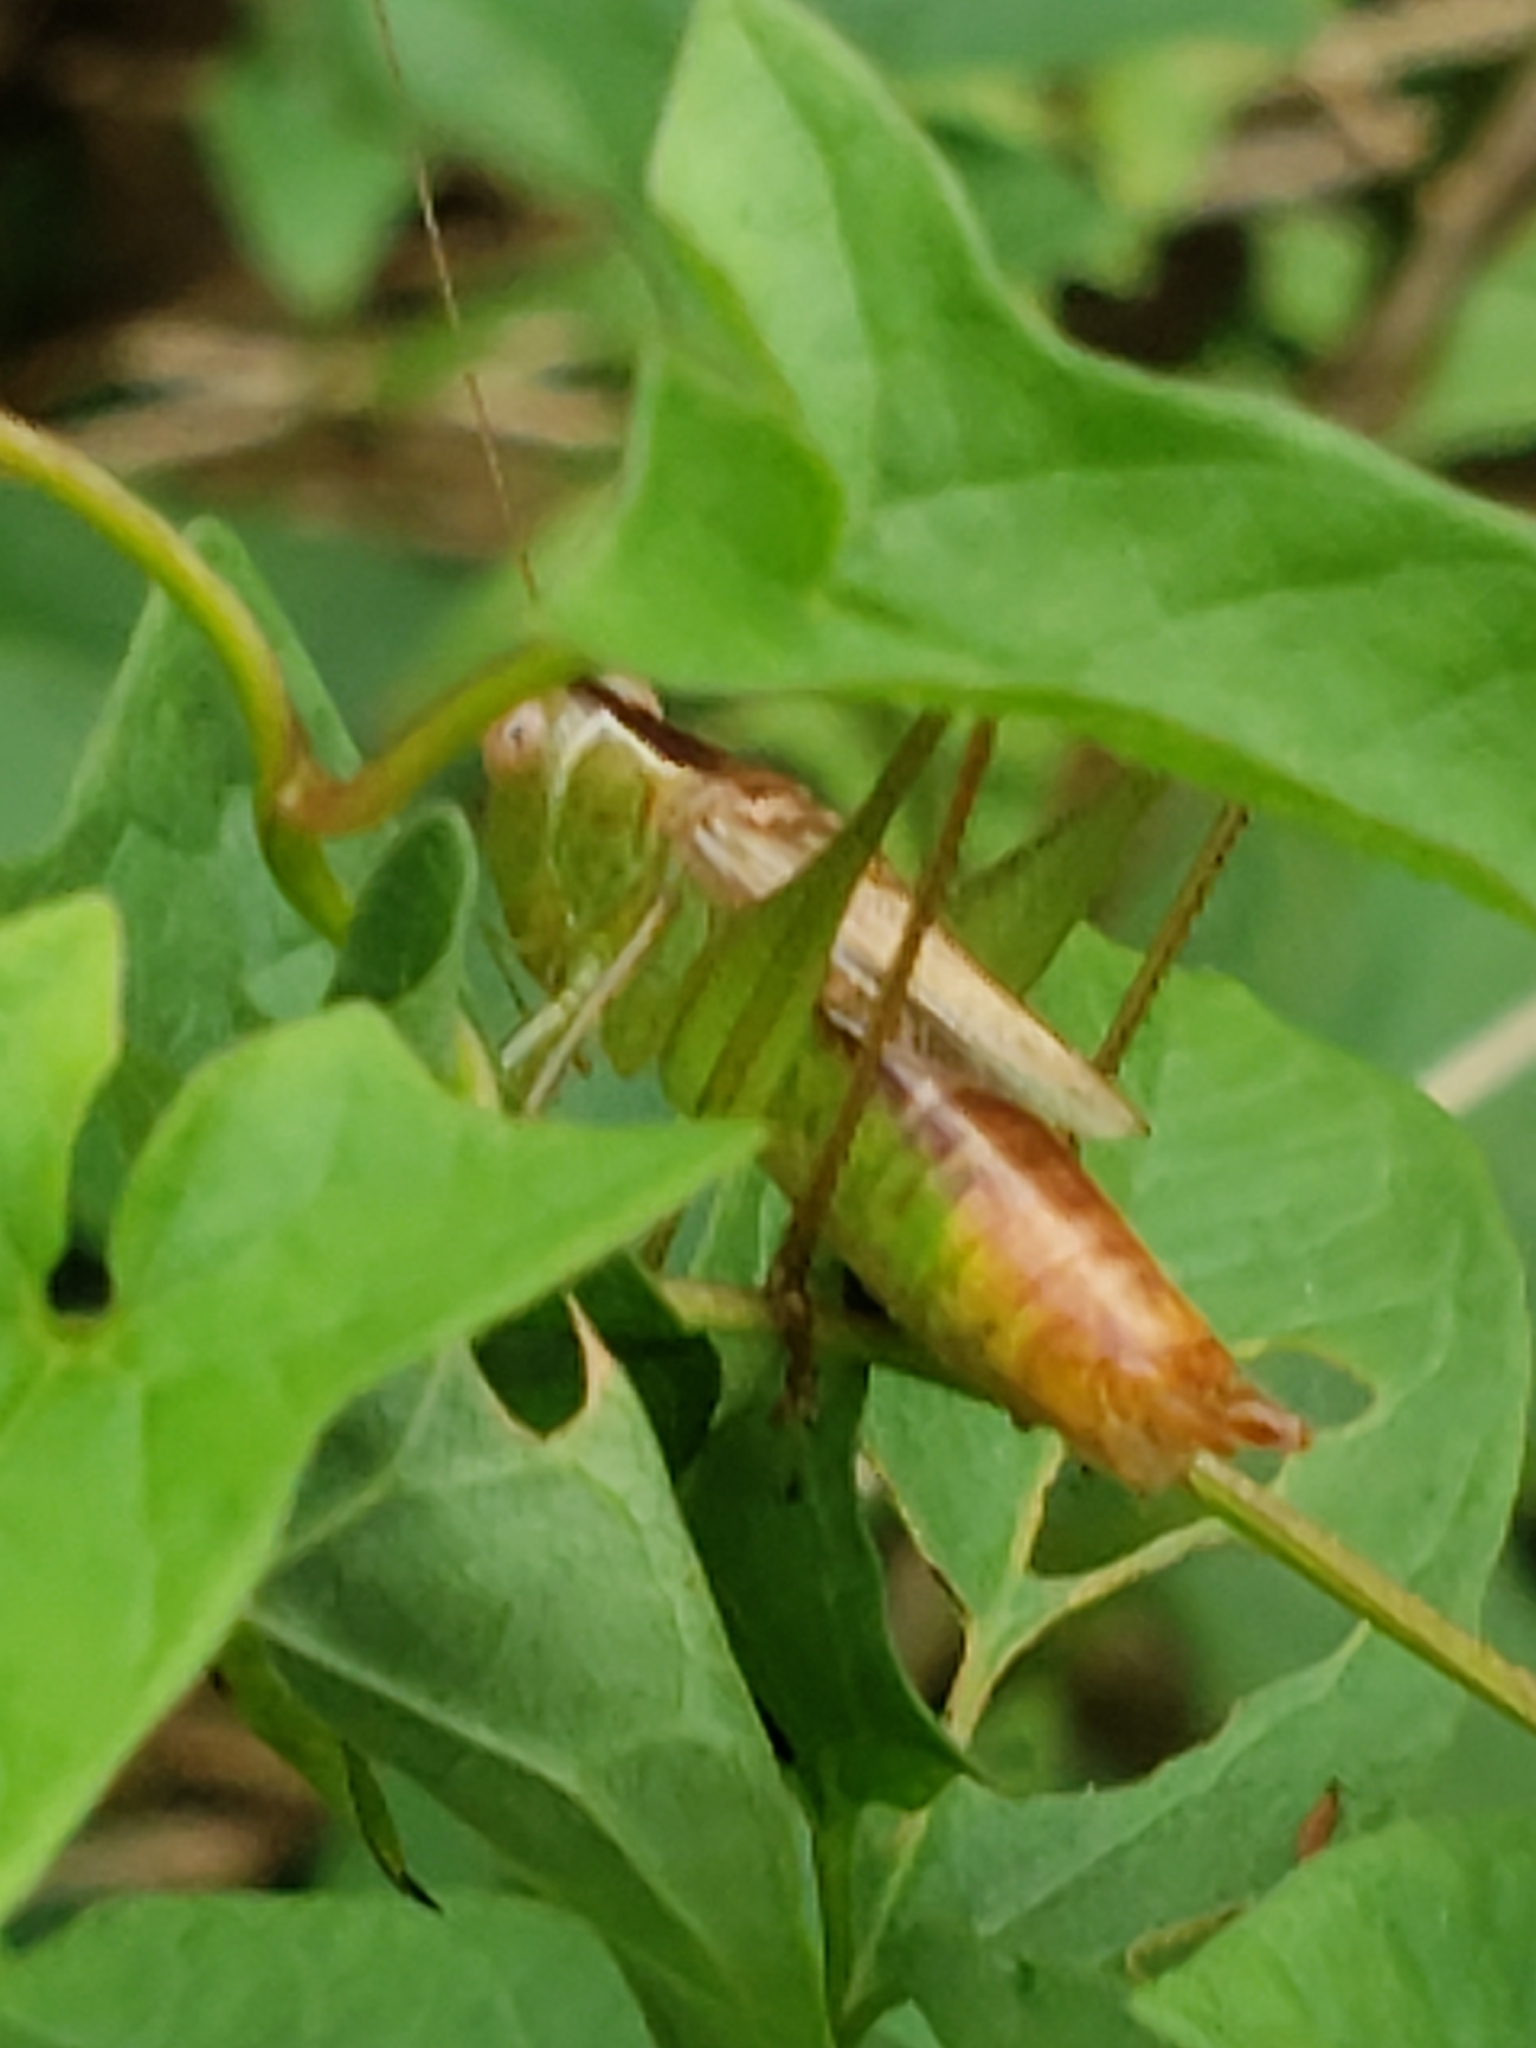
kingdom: Animalia
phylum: Arthropoda
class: Insecta
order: Orthoptera
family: Tettigoniidae
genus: Conocephalus
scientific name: Conocephalus brevipennis
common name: Short-winged meadow katydid
